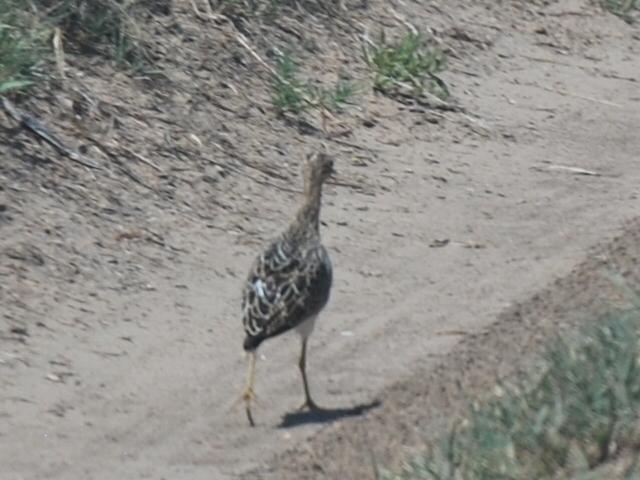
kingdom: Animalia
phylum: Chordata
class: Aves
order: Charadriiformes
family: Scolopacidae
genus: Bartramia
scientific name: Bartramia longicauda
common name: Upland sandpiper
